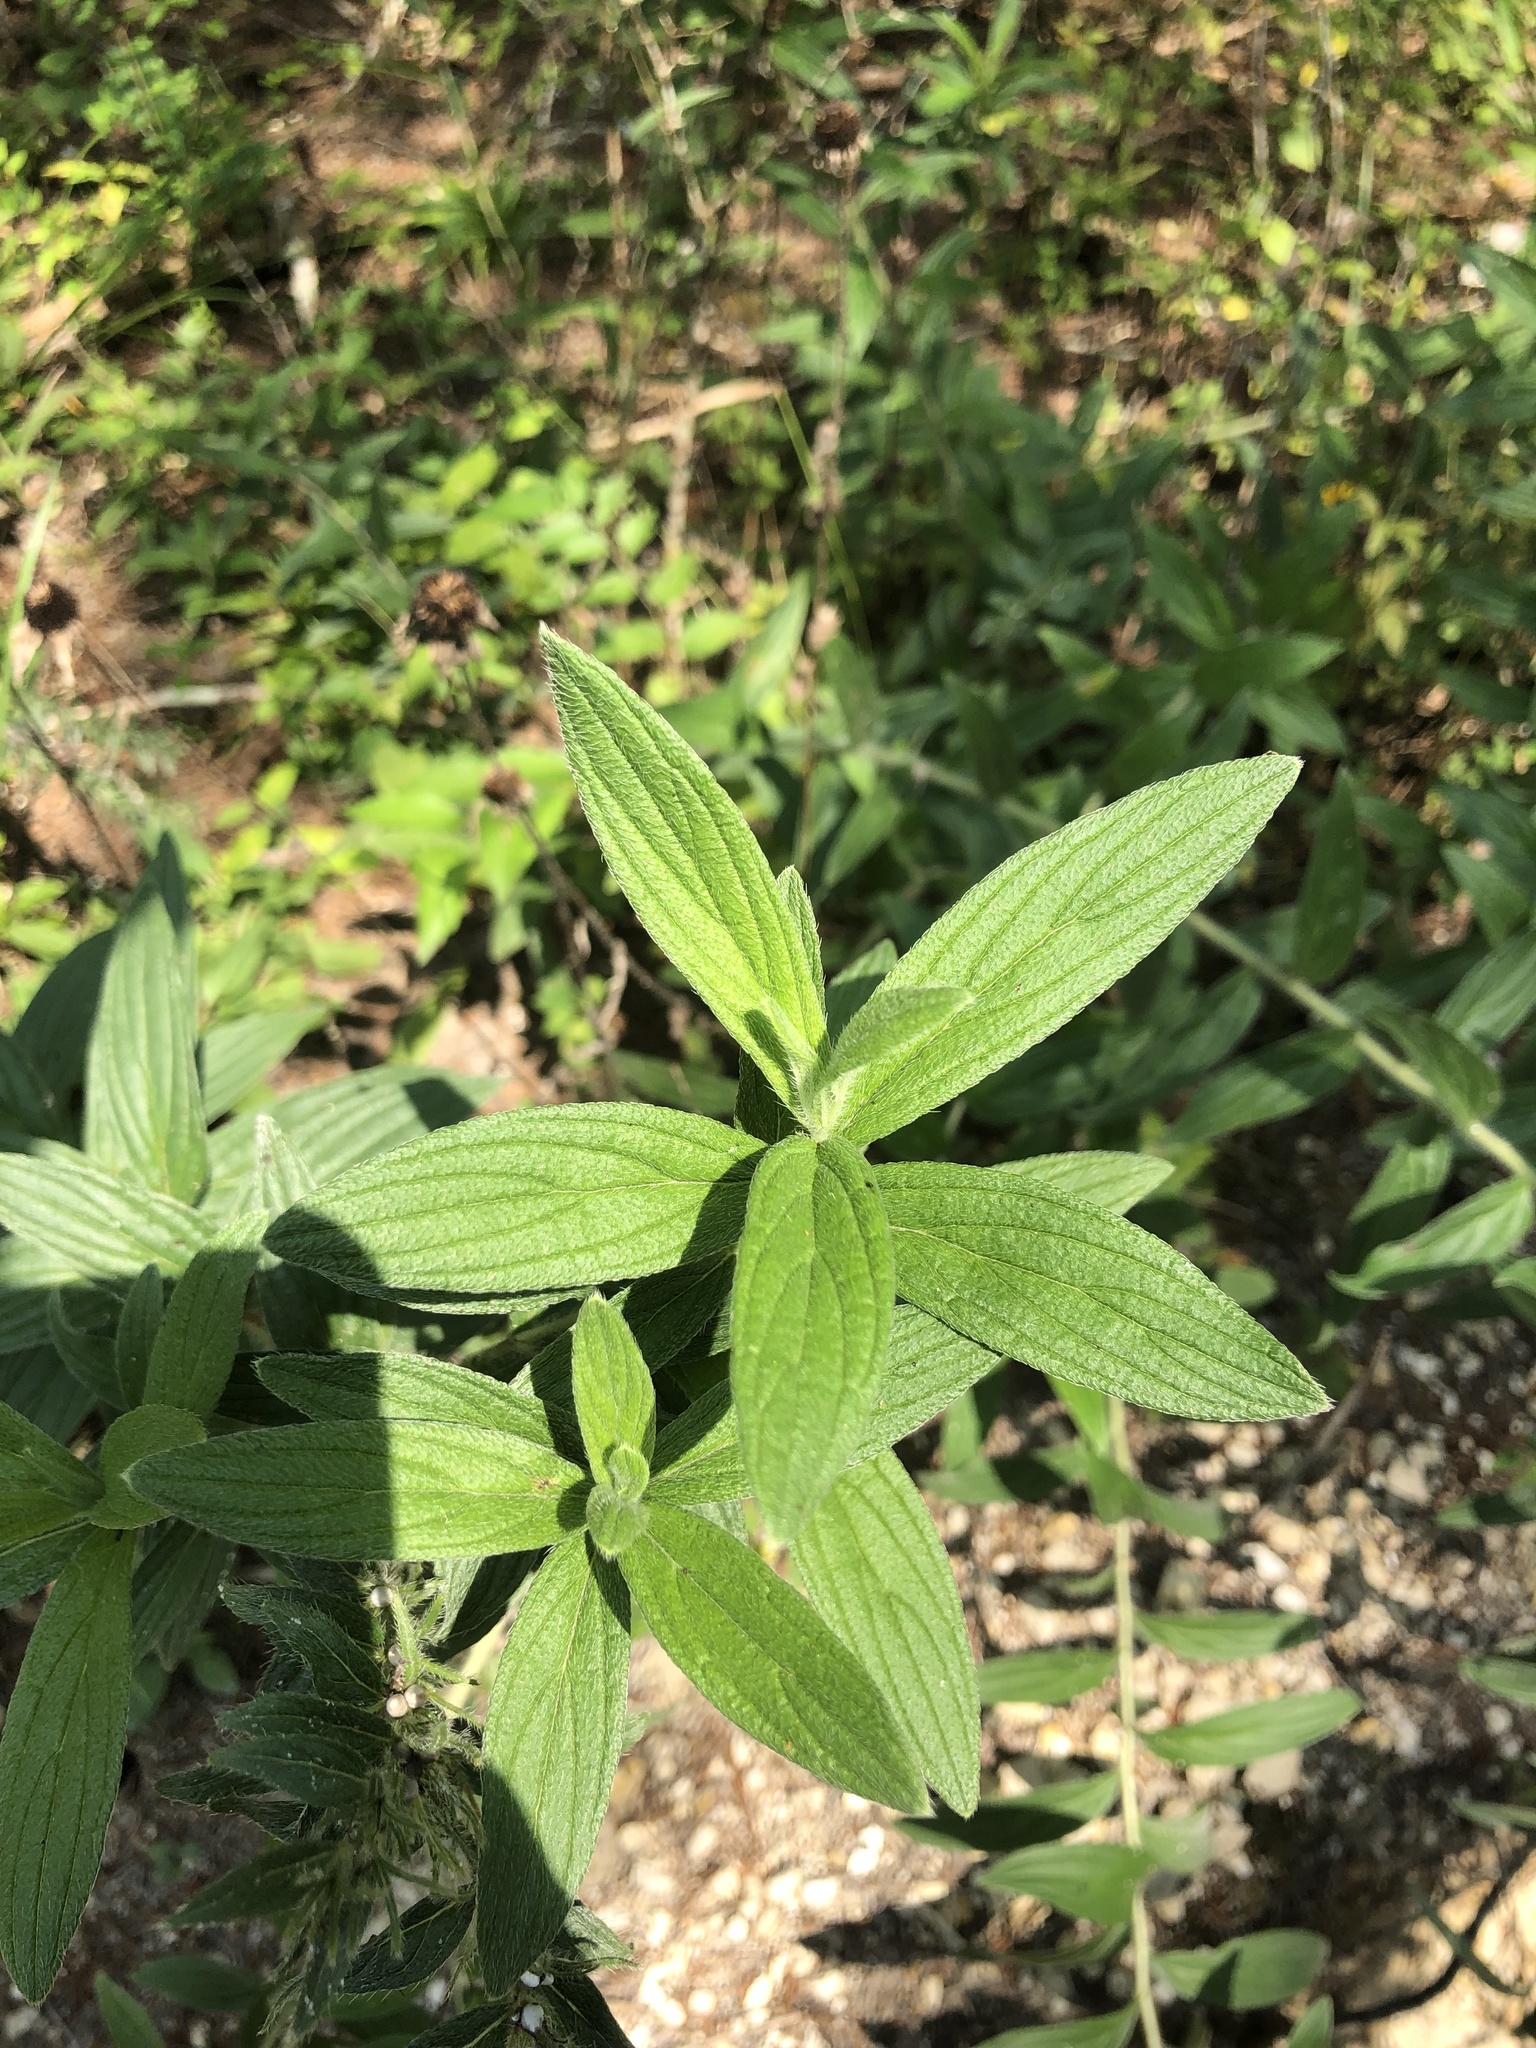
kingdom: Plantae
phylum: Tracheophyta
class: Magnoliopsida
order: Boraginales
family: Boraginaceae
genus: Lithospermum
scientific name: Lithospermum caroliniense
